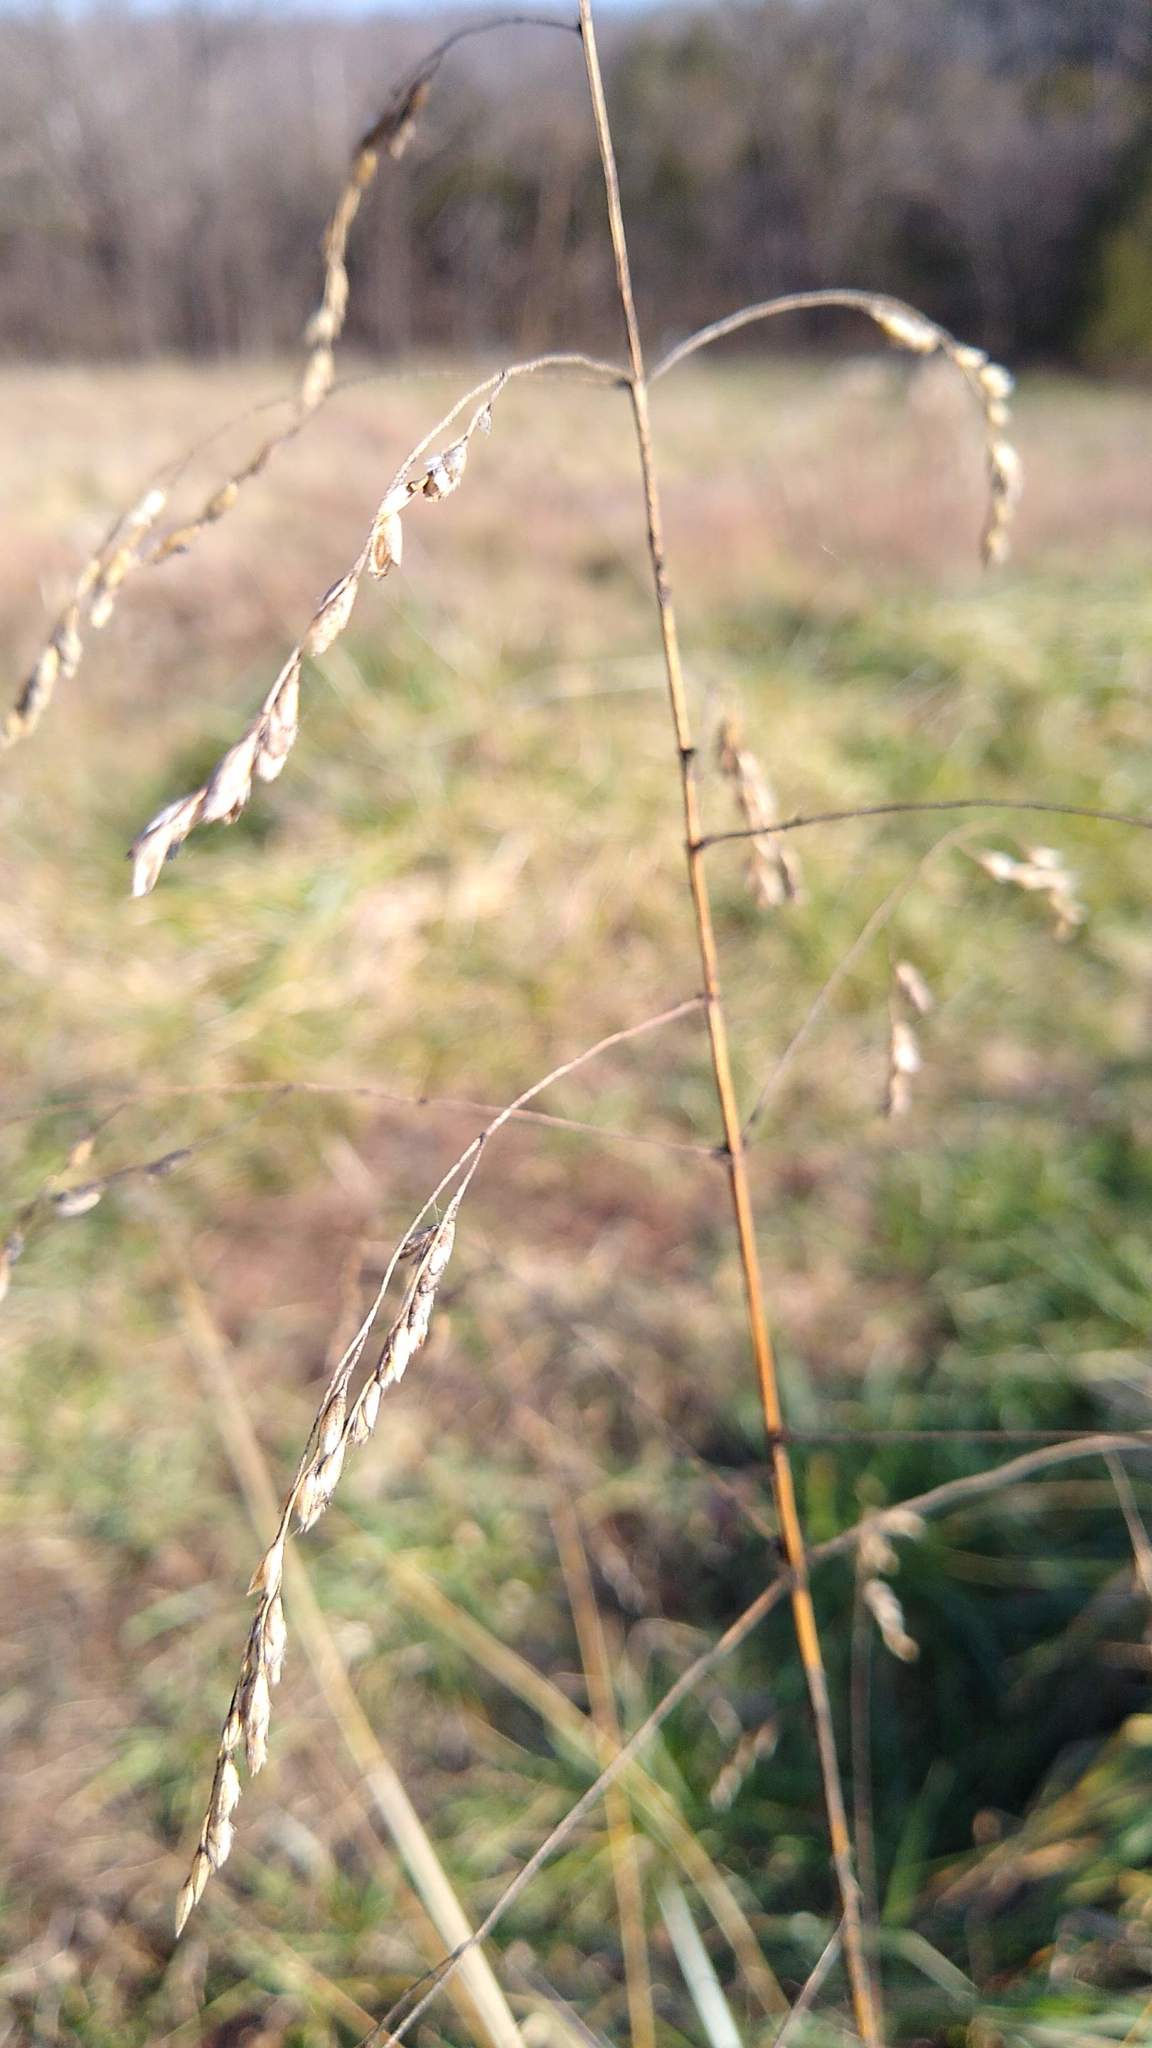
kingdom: Plantae
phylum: Tracheophyta
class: Liliopsida
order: Poales
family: Poaceae
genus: Tridens
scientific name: Tridens flavus
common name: Purpletop
